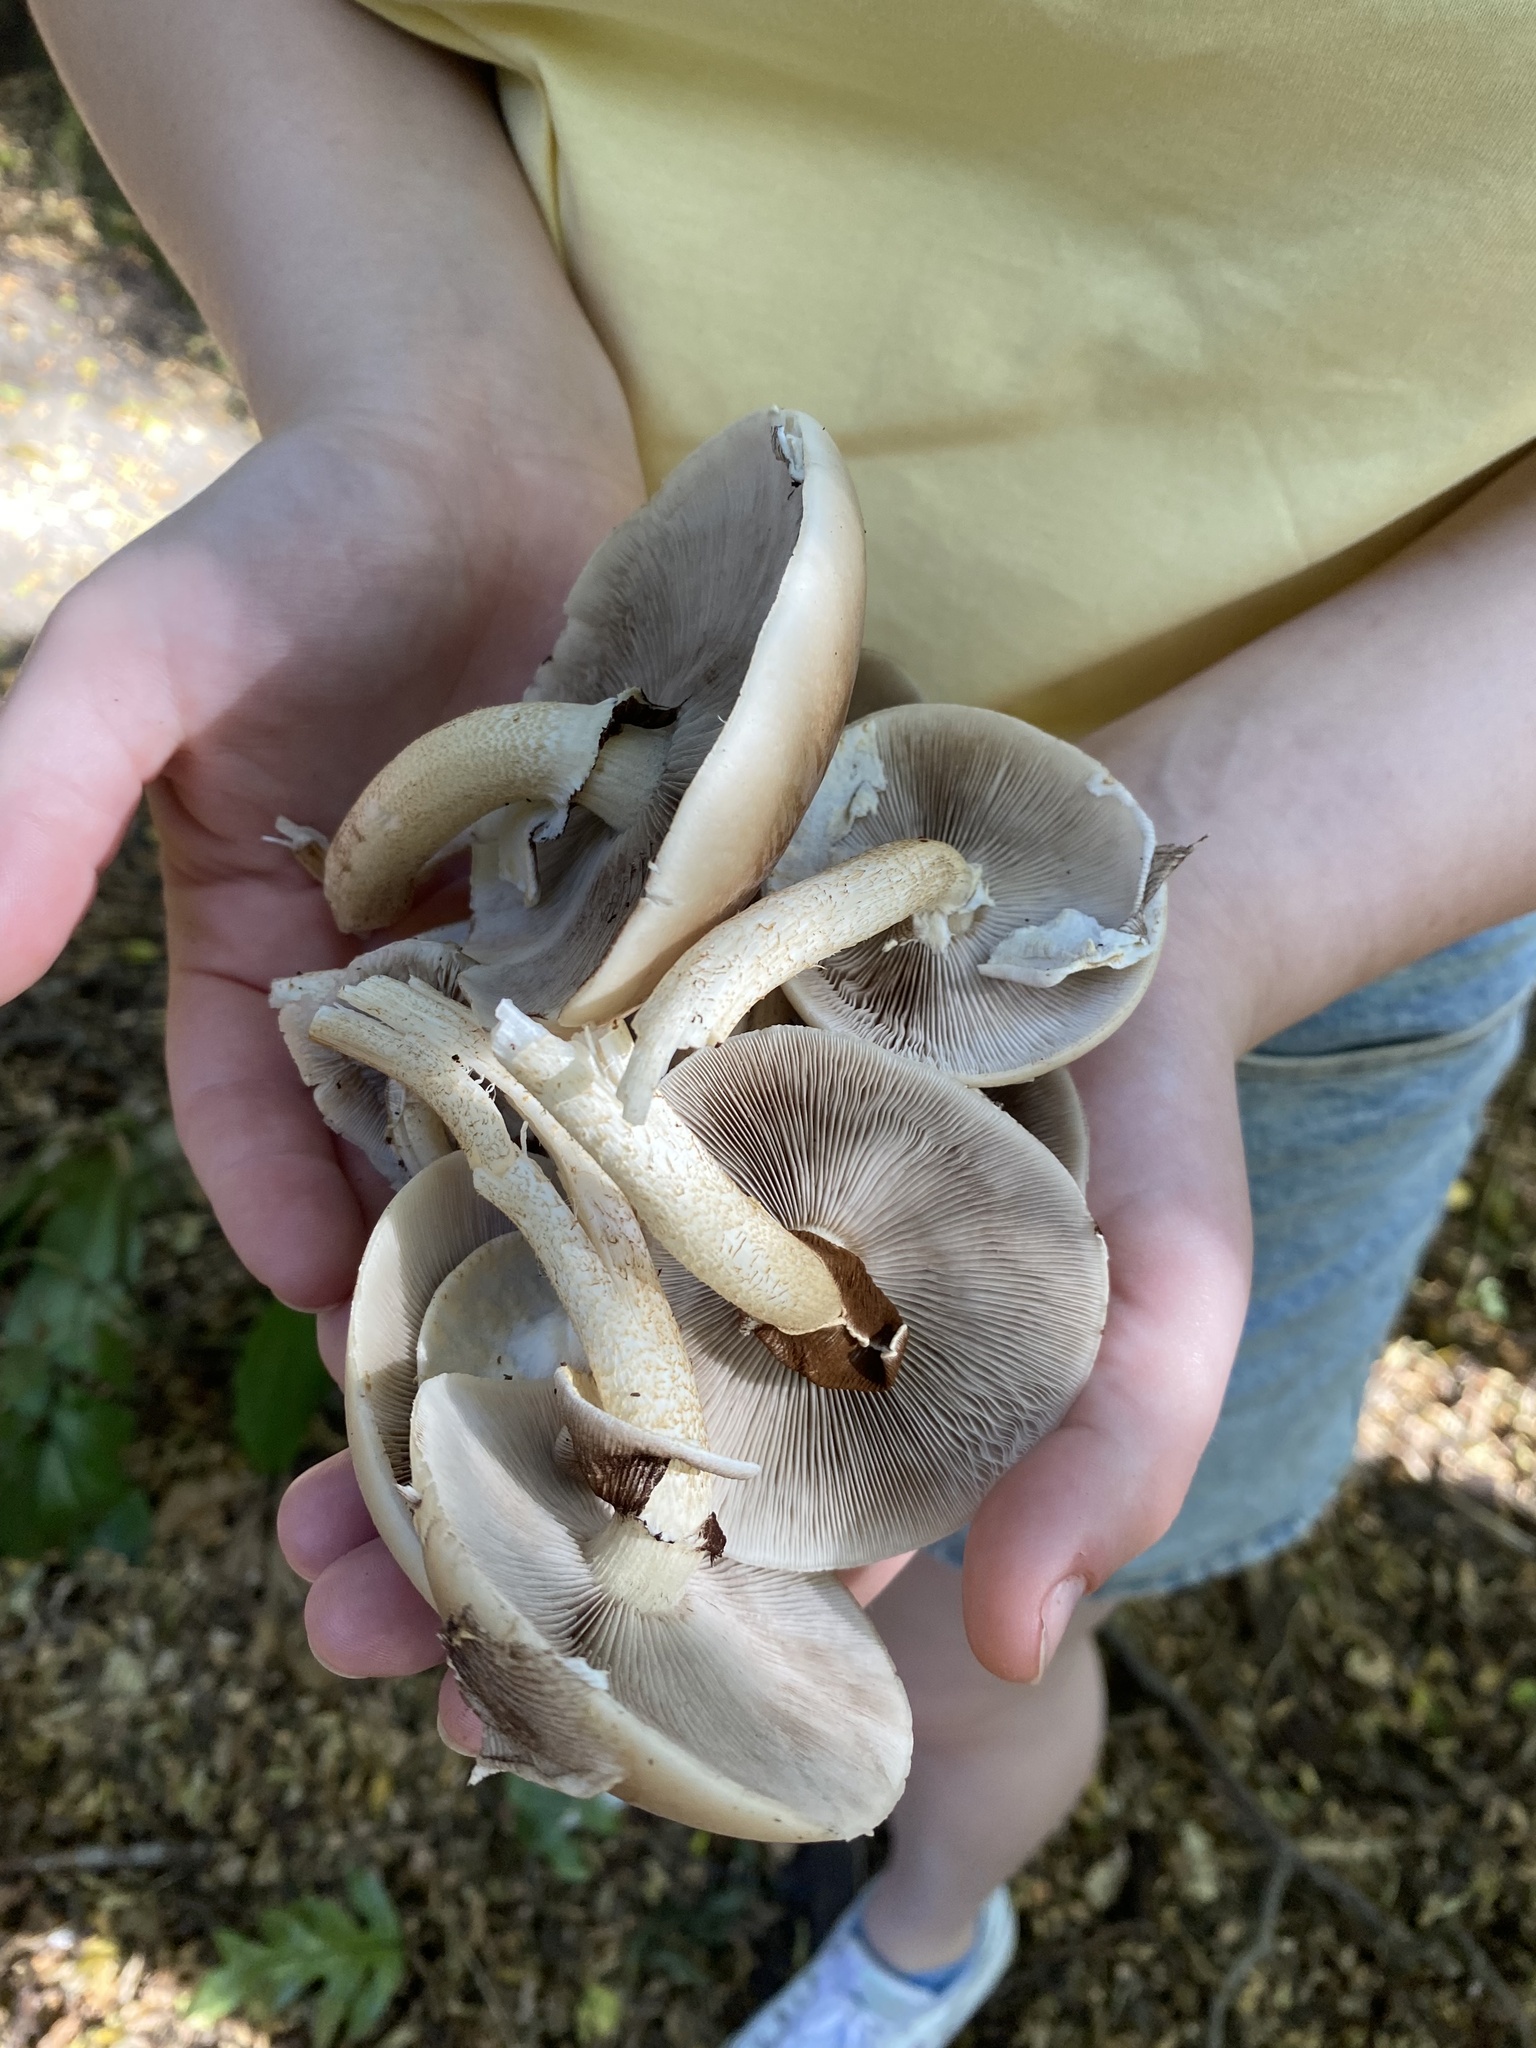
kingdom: Fungi
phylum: Basidiomycota
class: Agaricomycetes
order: Agaricales
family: Tubariaceae
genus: Cyclocybe
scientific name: Cyclocybe parasitica
